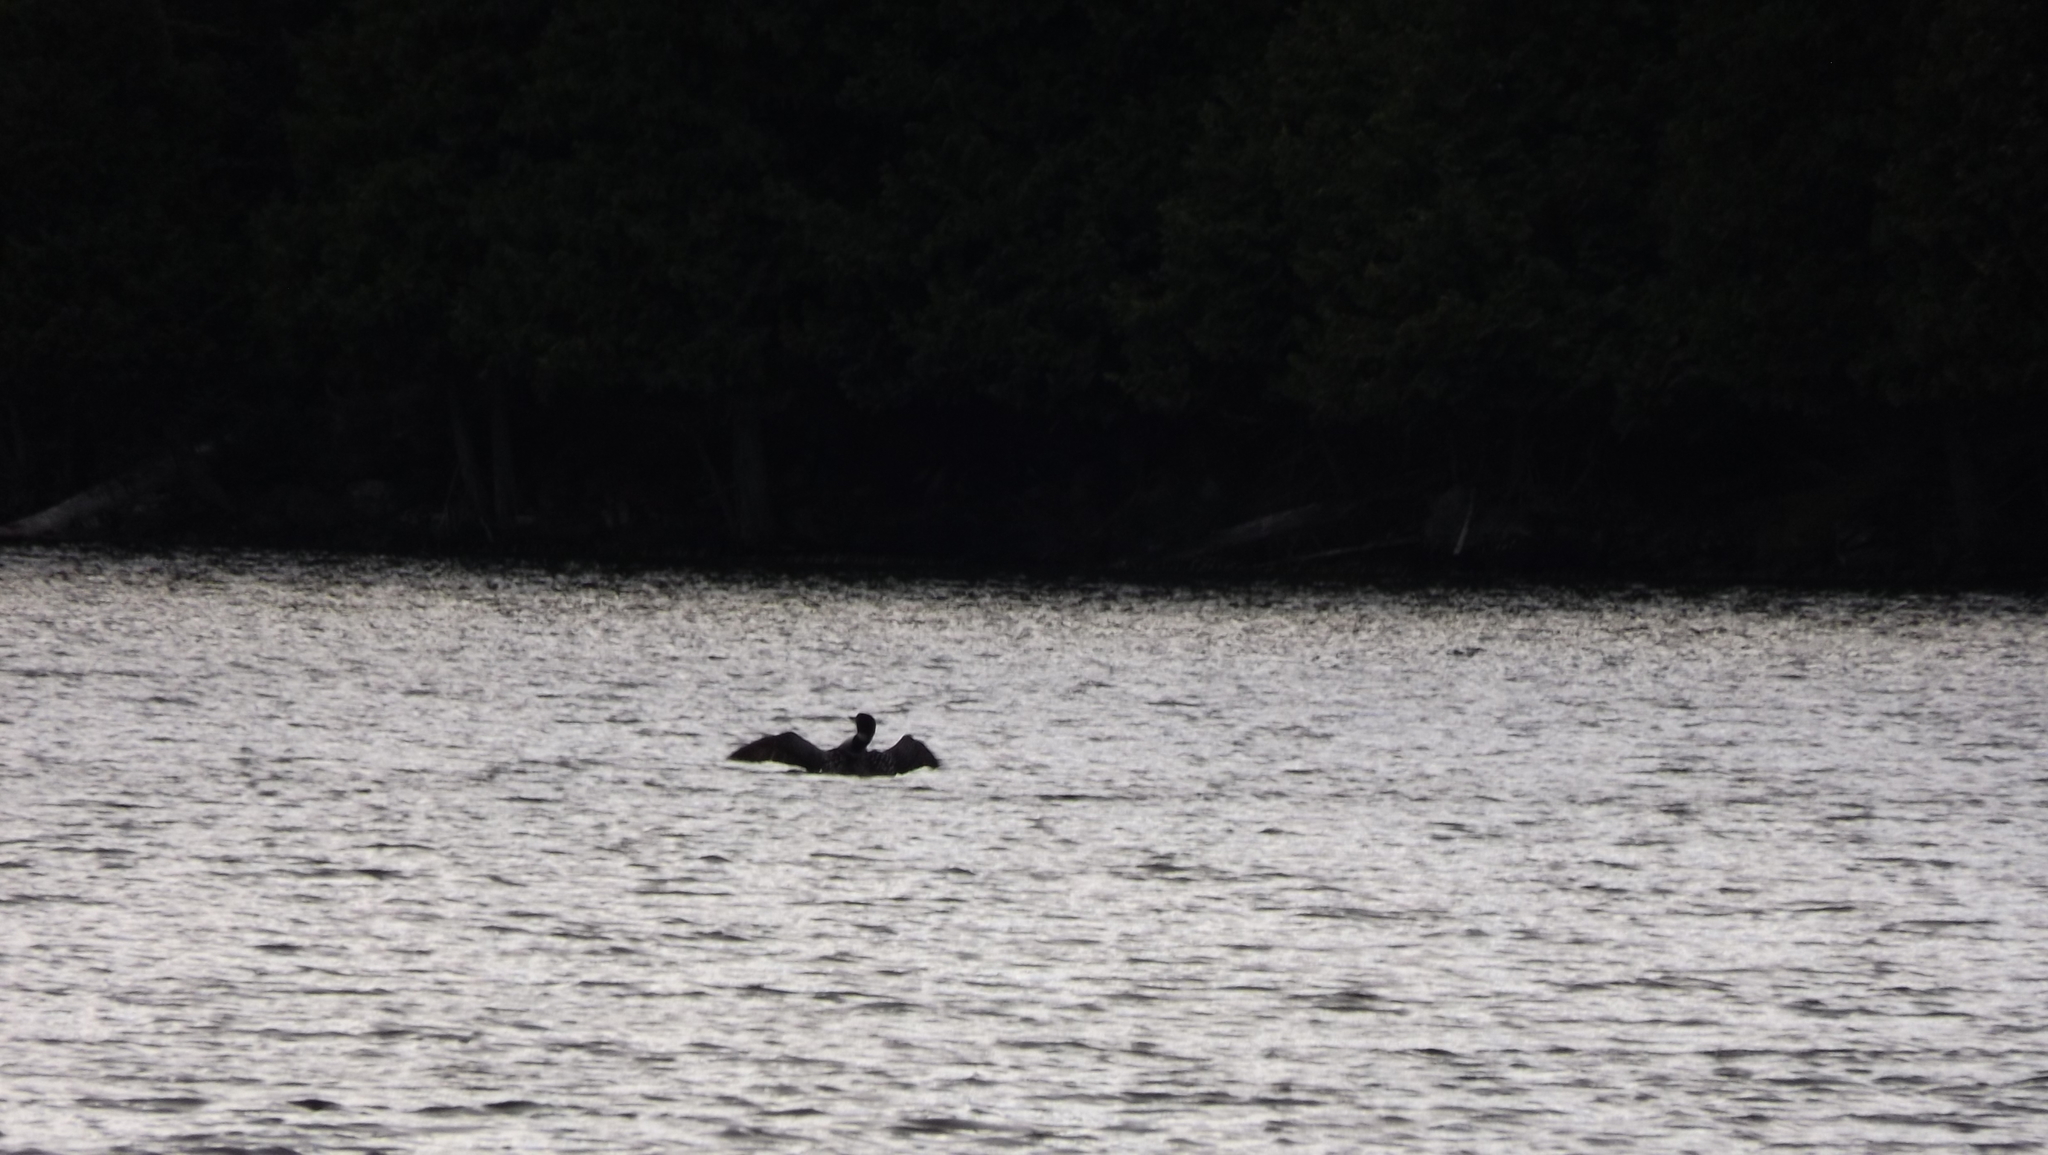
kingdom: Animalia
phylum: Chordata
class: Aves
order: Gaviiformes
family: Gaviidae
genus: Gavia
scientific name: Gavia immer
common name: Common loon
